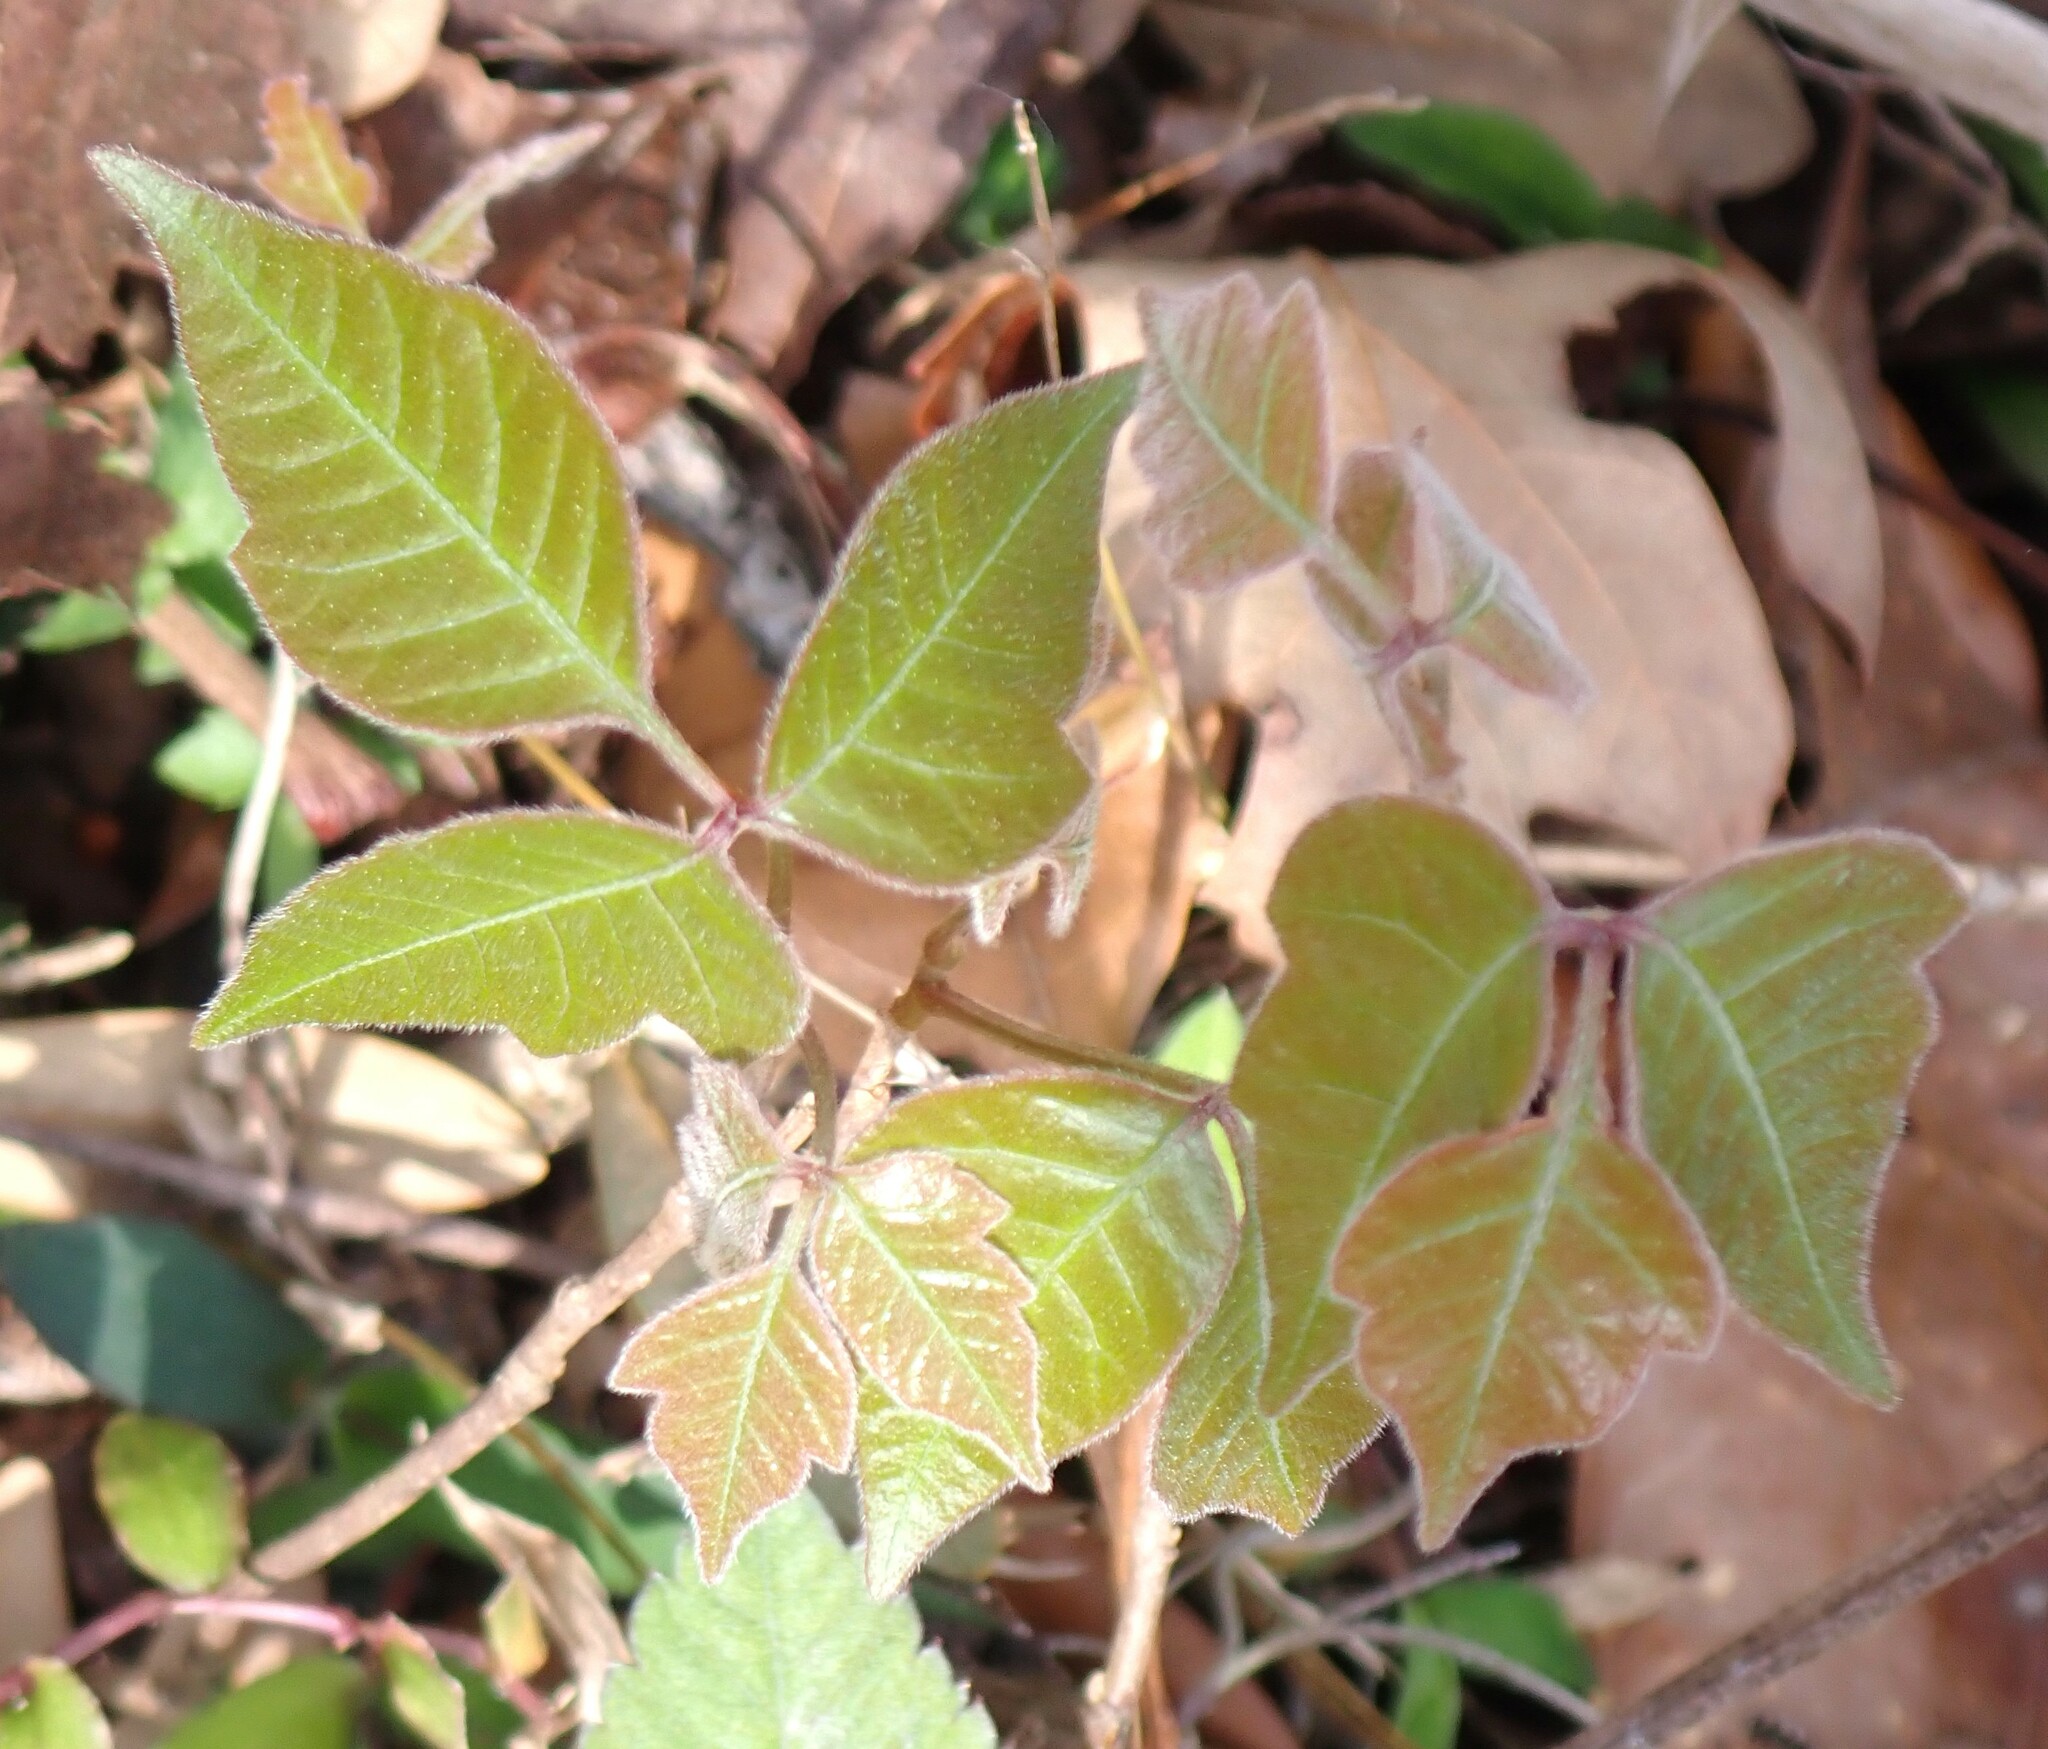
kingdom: Plantae
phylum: Tracheophyta
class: Magnoliopsida
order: Sapindales
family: Anacardiaceae
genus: Toxicodendron
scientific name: Toxicodendron radicans
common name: Poison ivy
